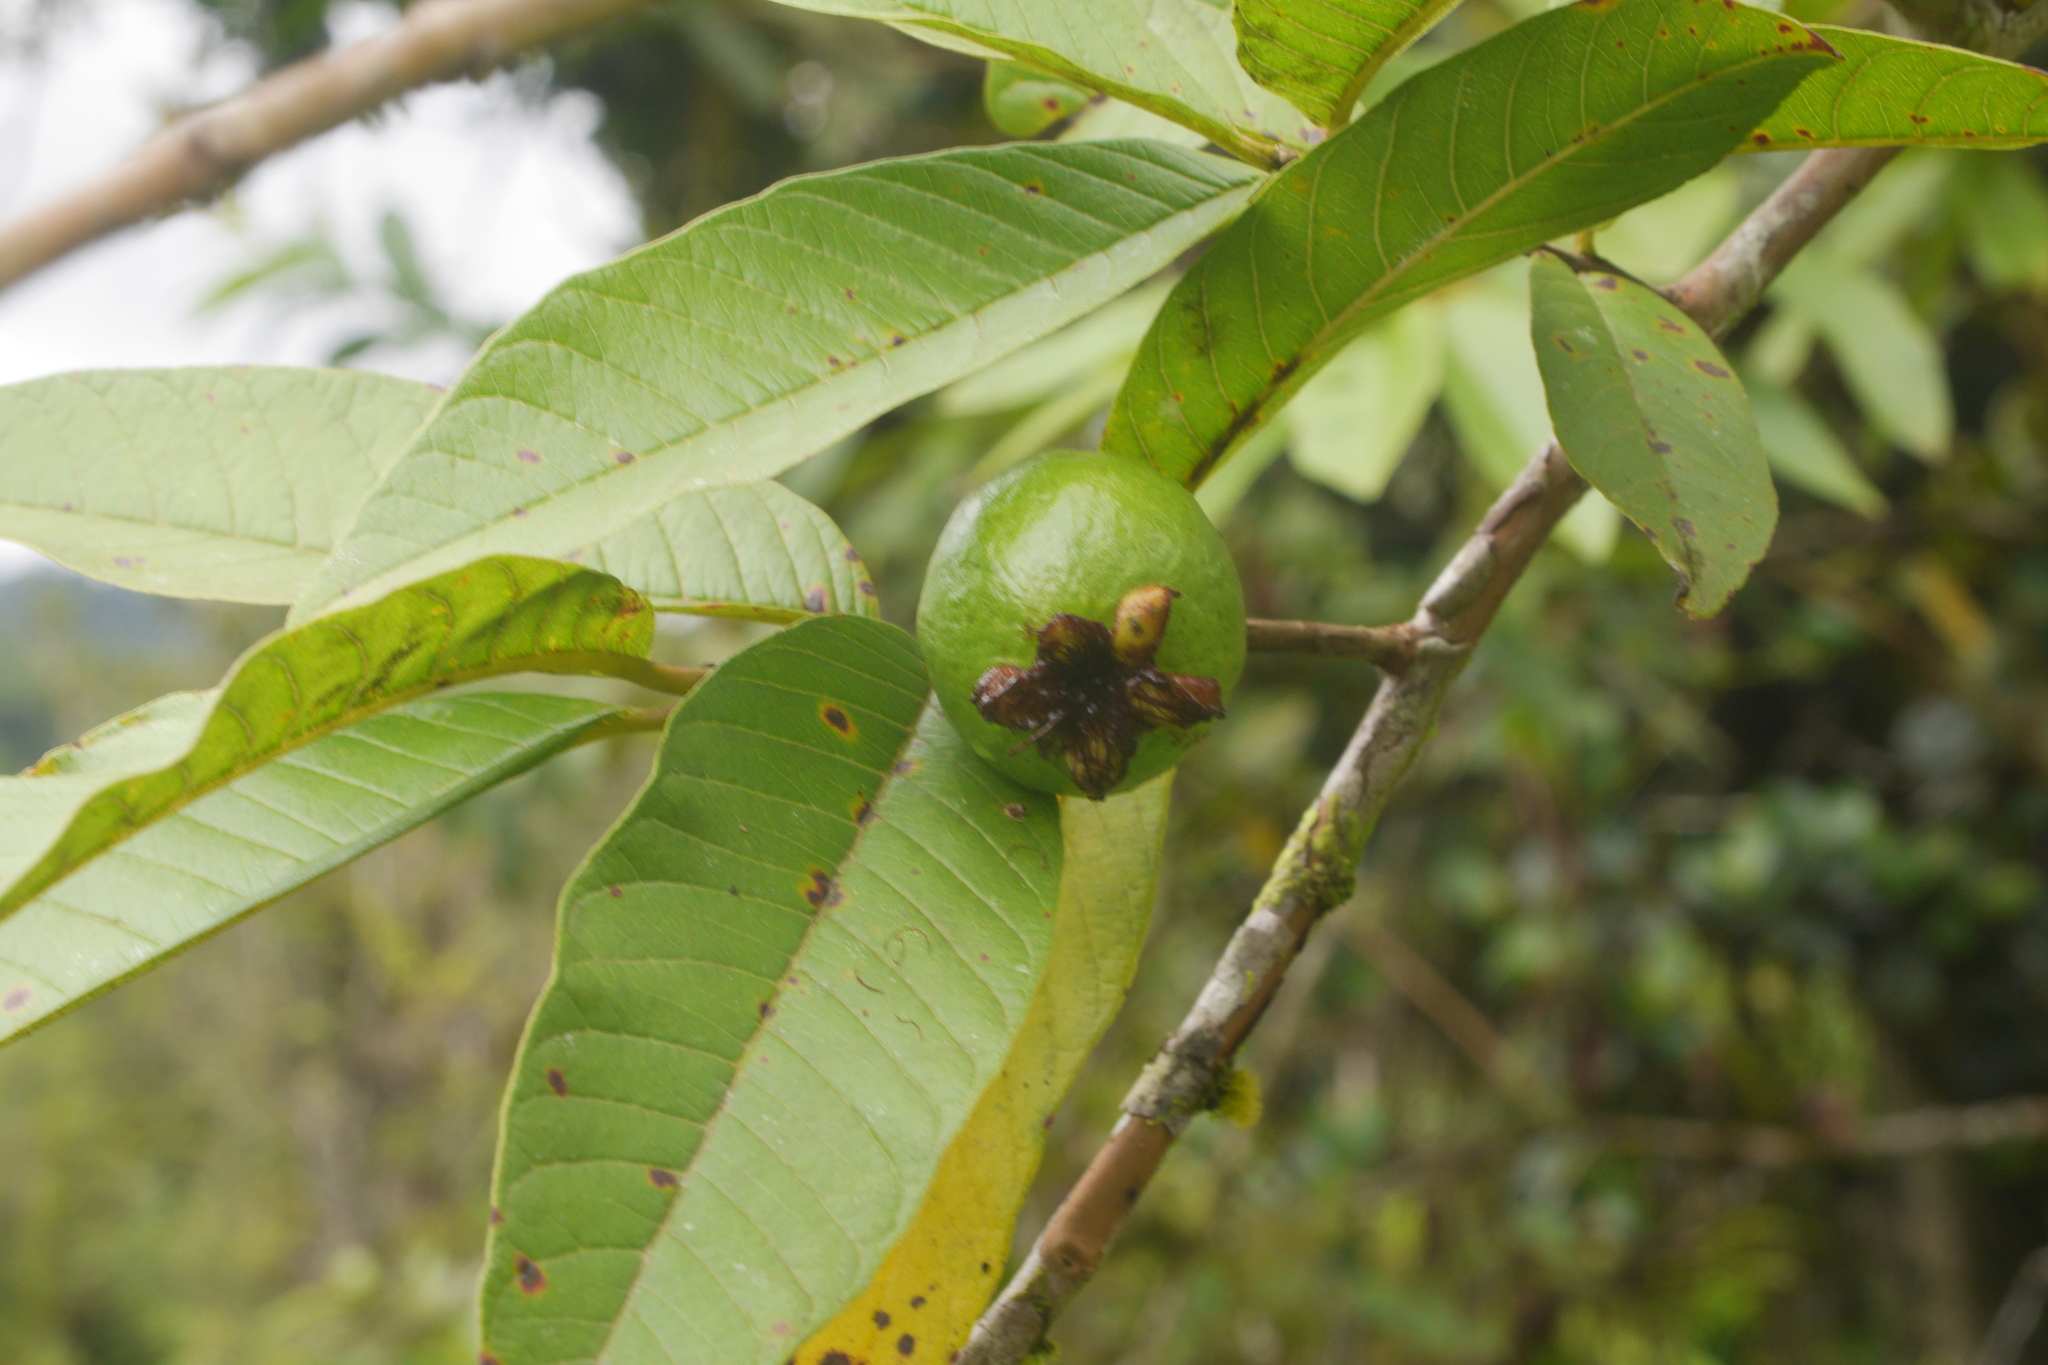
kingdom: Plantae
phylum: Tracheophyta
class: Magnoliopsida
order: Myrtales
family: Myrtaceae
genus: Psidium
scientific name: Psidium guajava
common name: Guava
